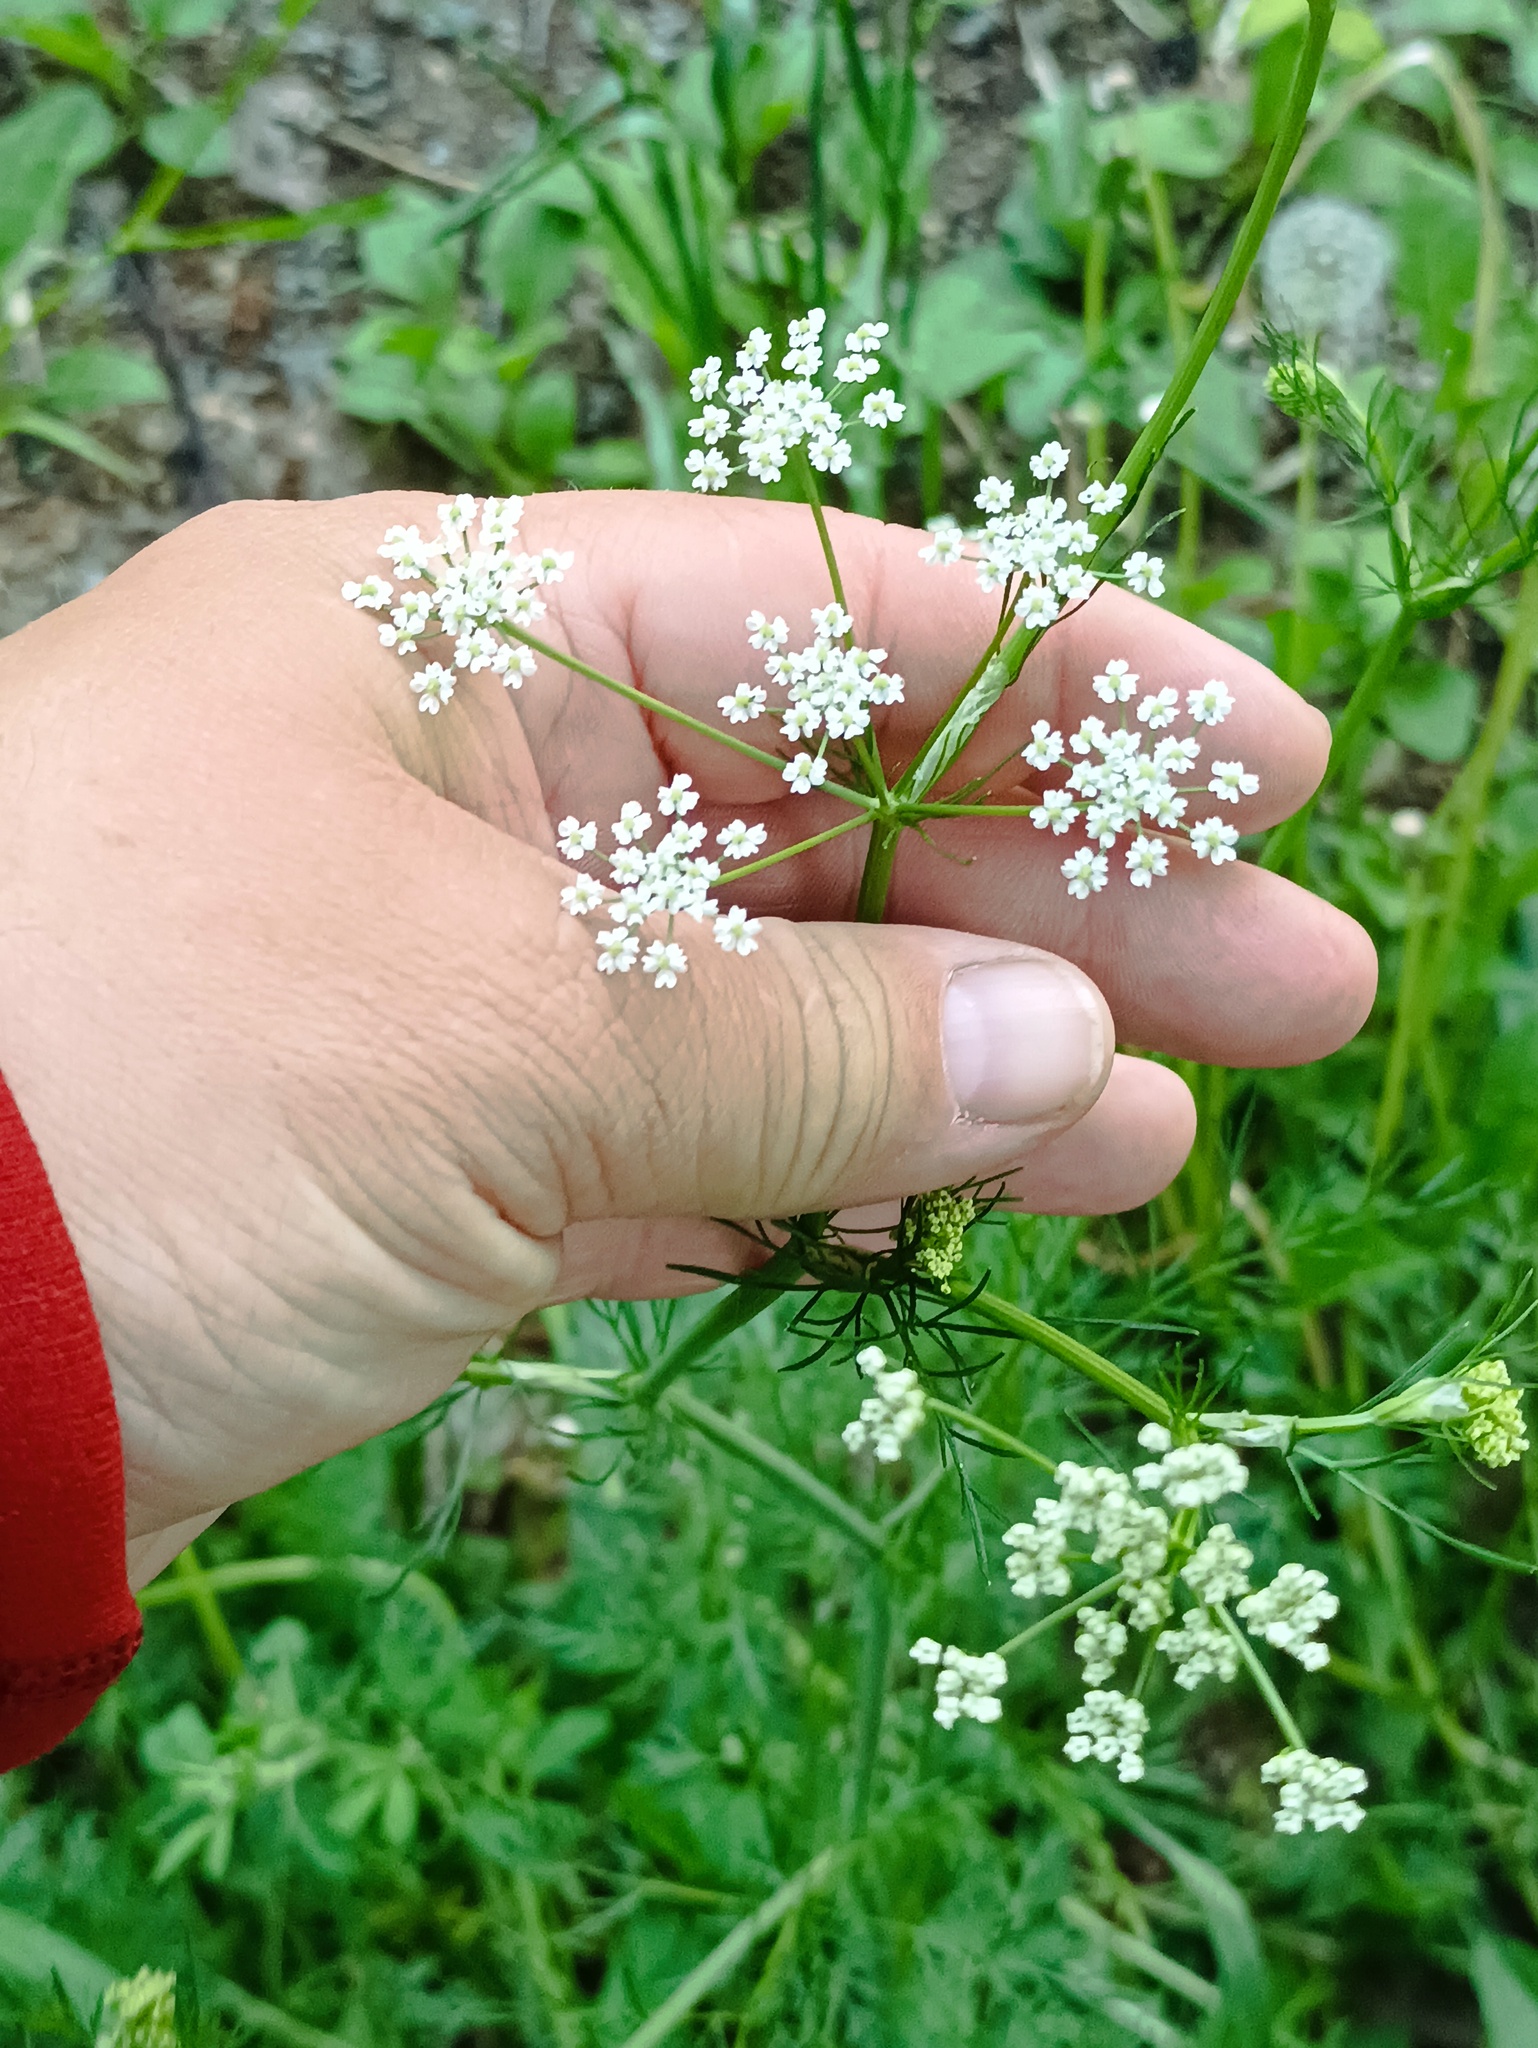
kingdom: Plantae
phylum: Tracheophyta
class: Magnoliopsida
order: Apiales
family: Apiaceae
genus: Carum
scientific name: Carum carvi
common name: Caraway
